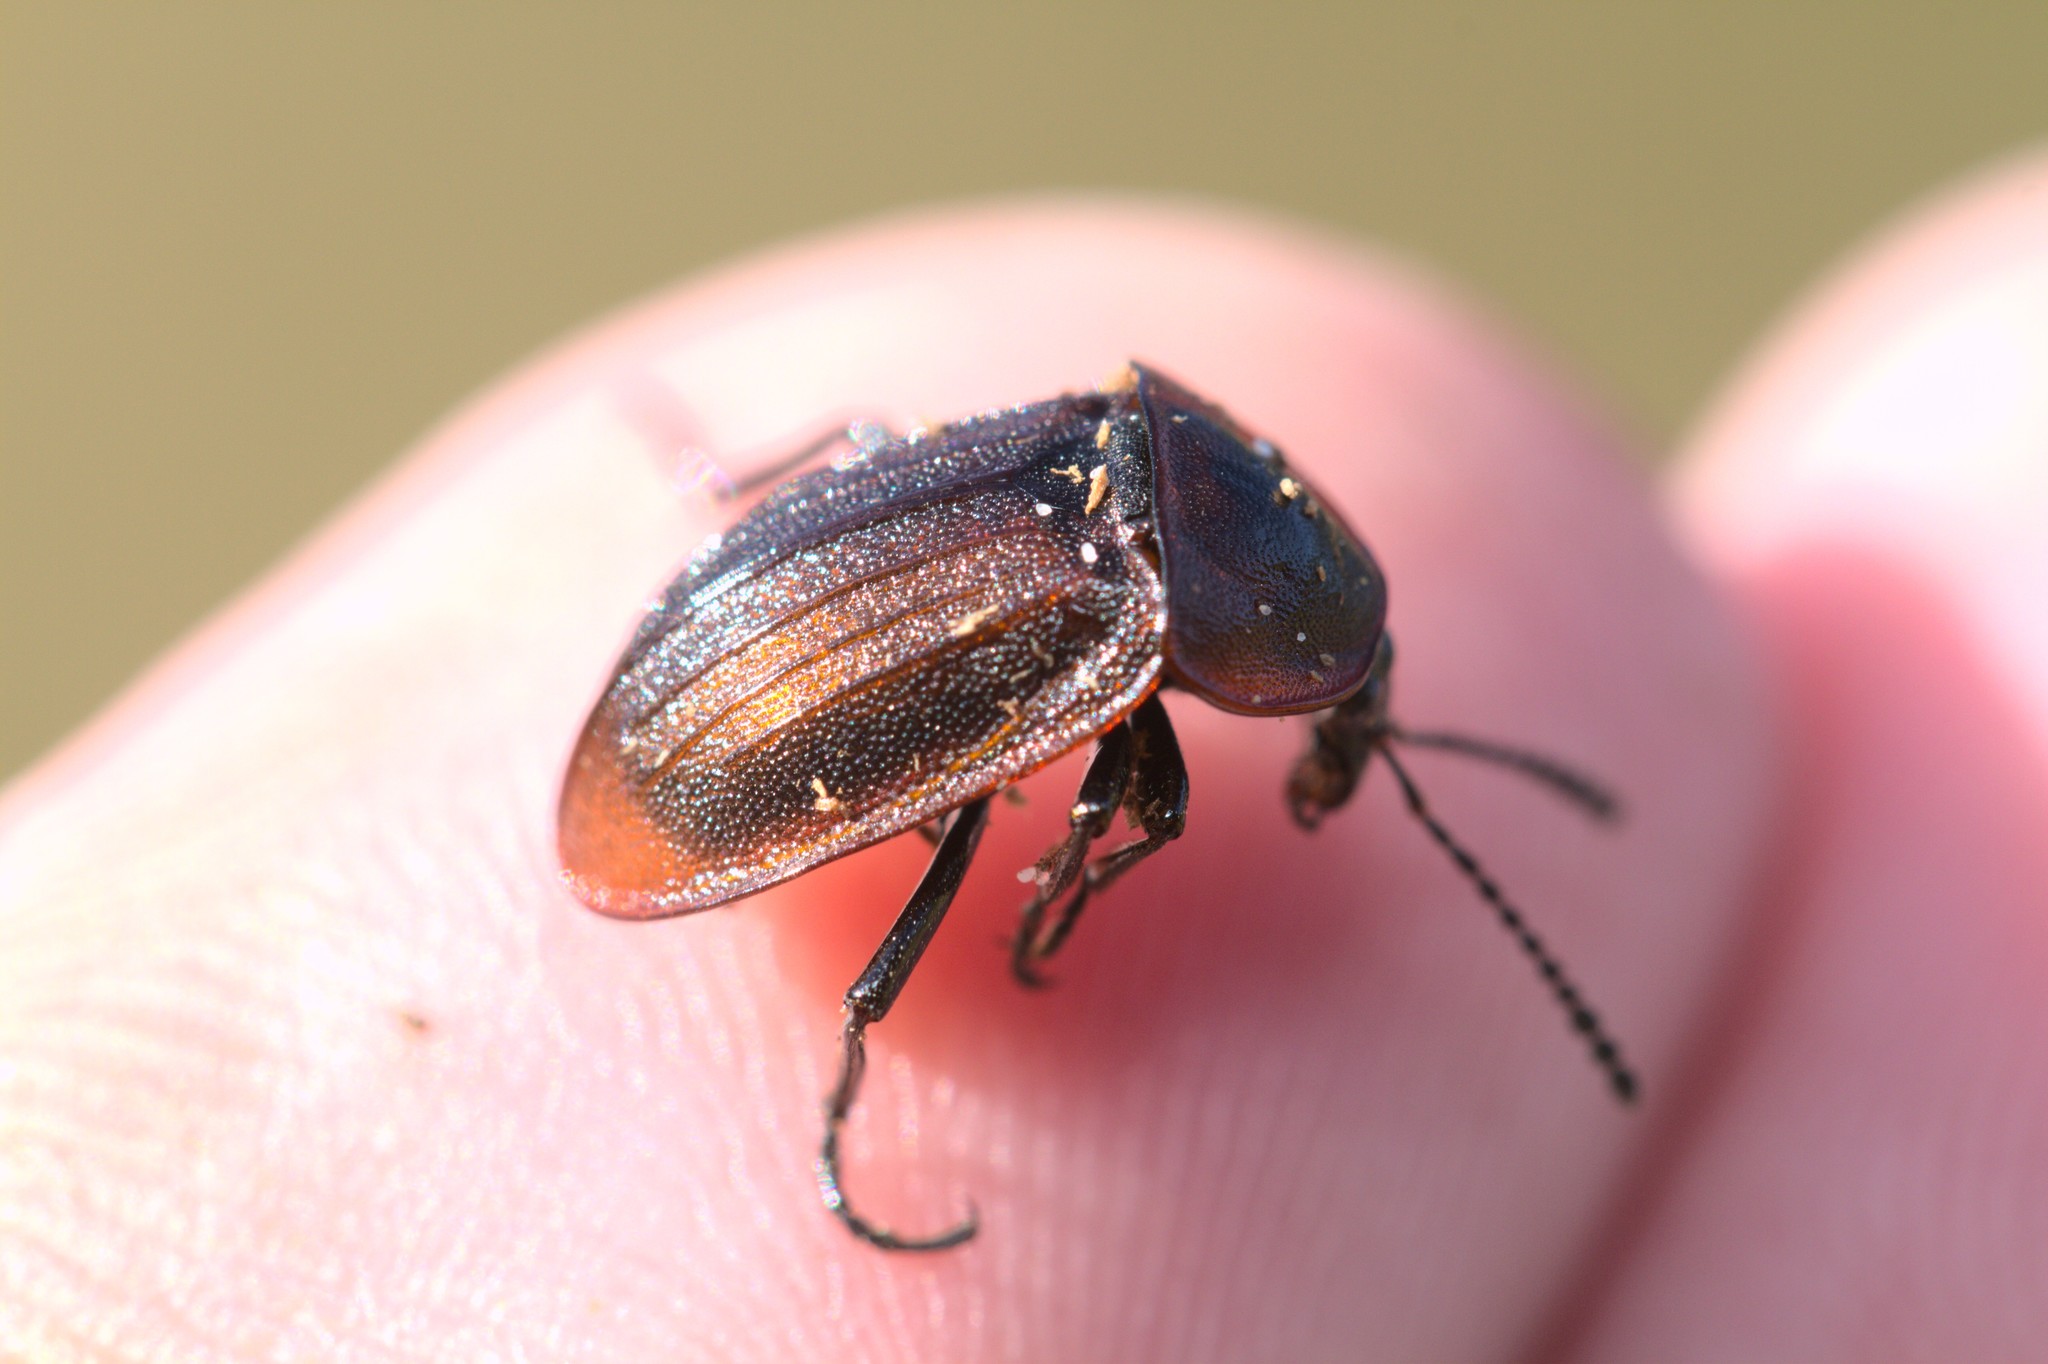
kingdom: Animalia
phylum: Arthropoda
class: Insecta
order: Coleoptera
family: Staphylinidae
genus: Silpha
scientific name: Silpha atrata
